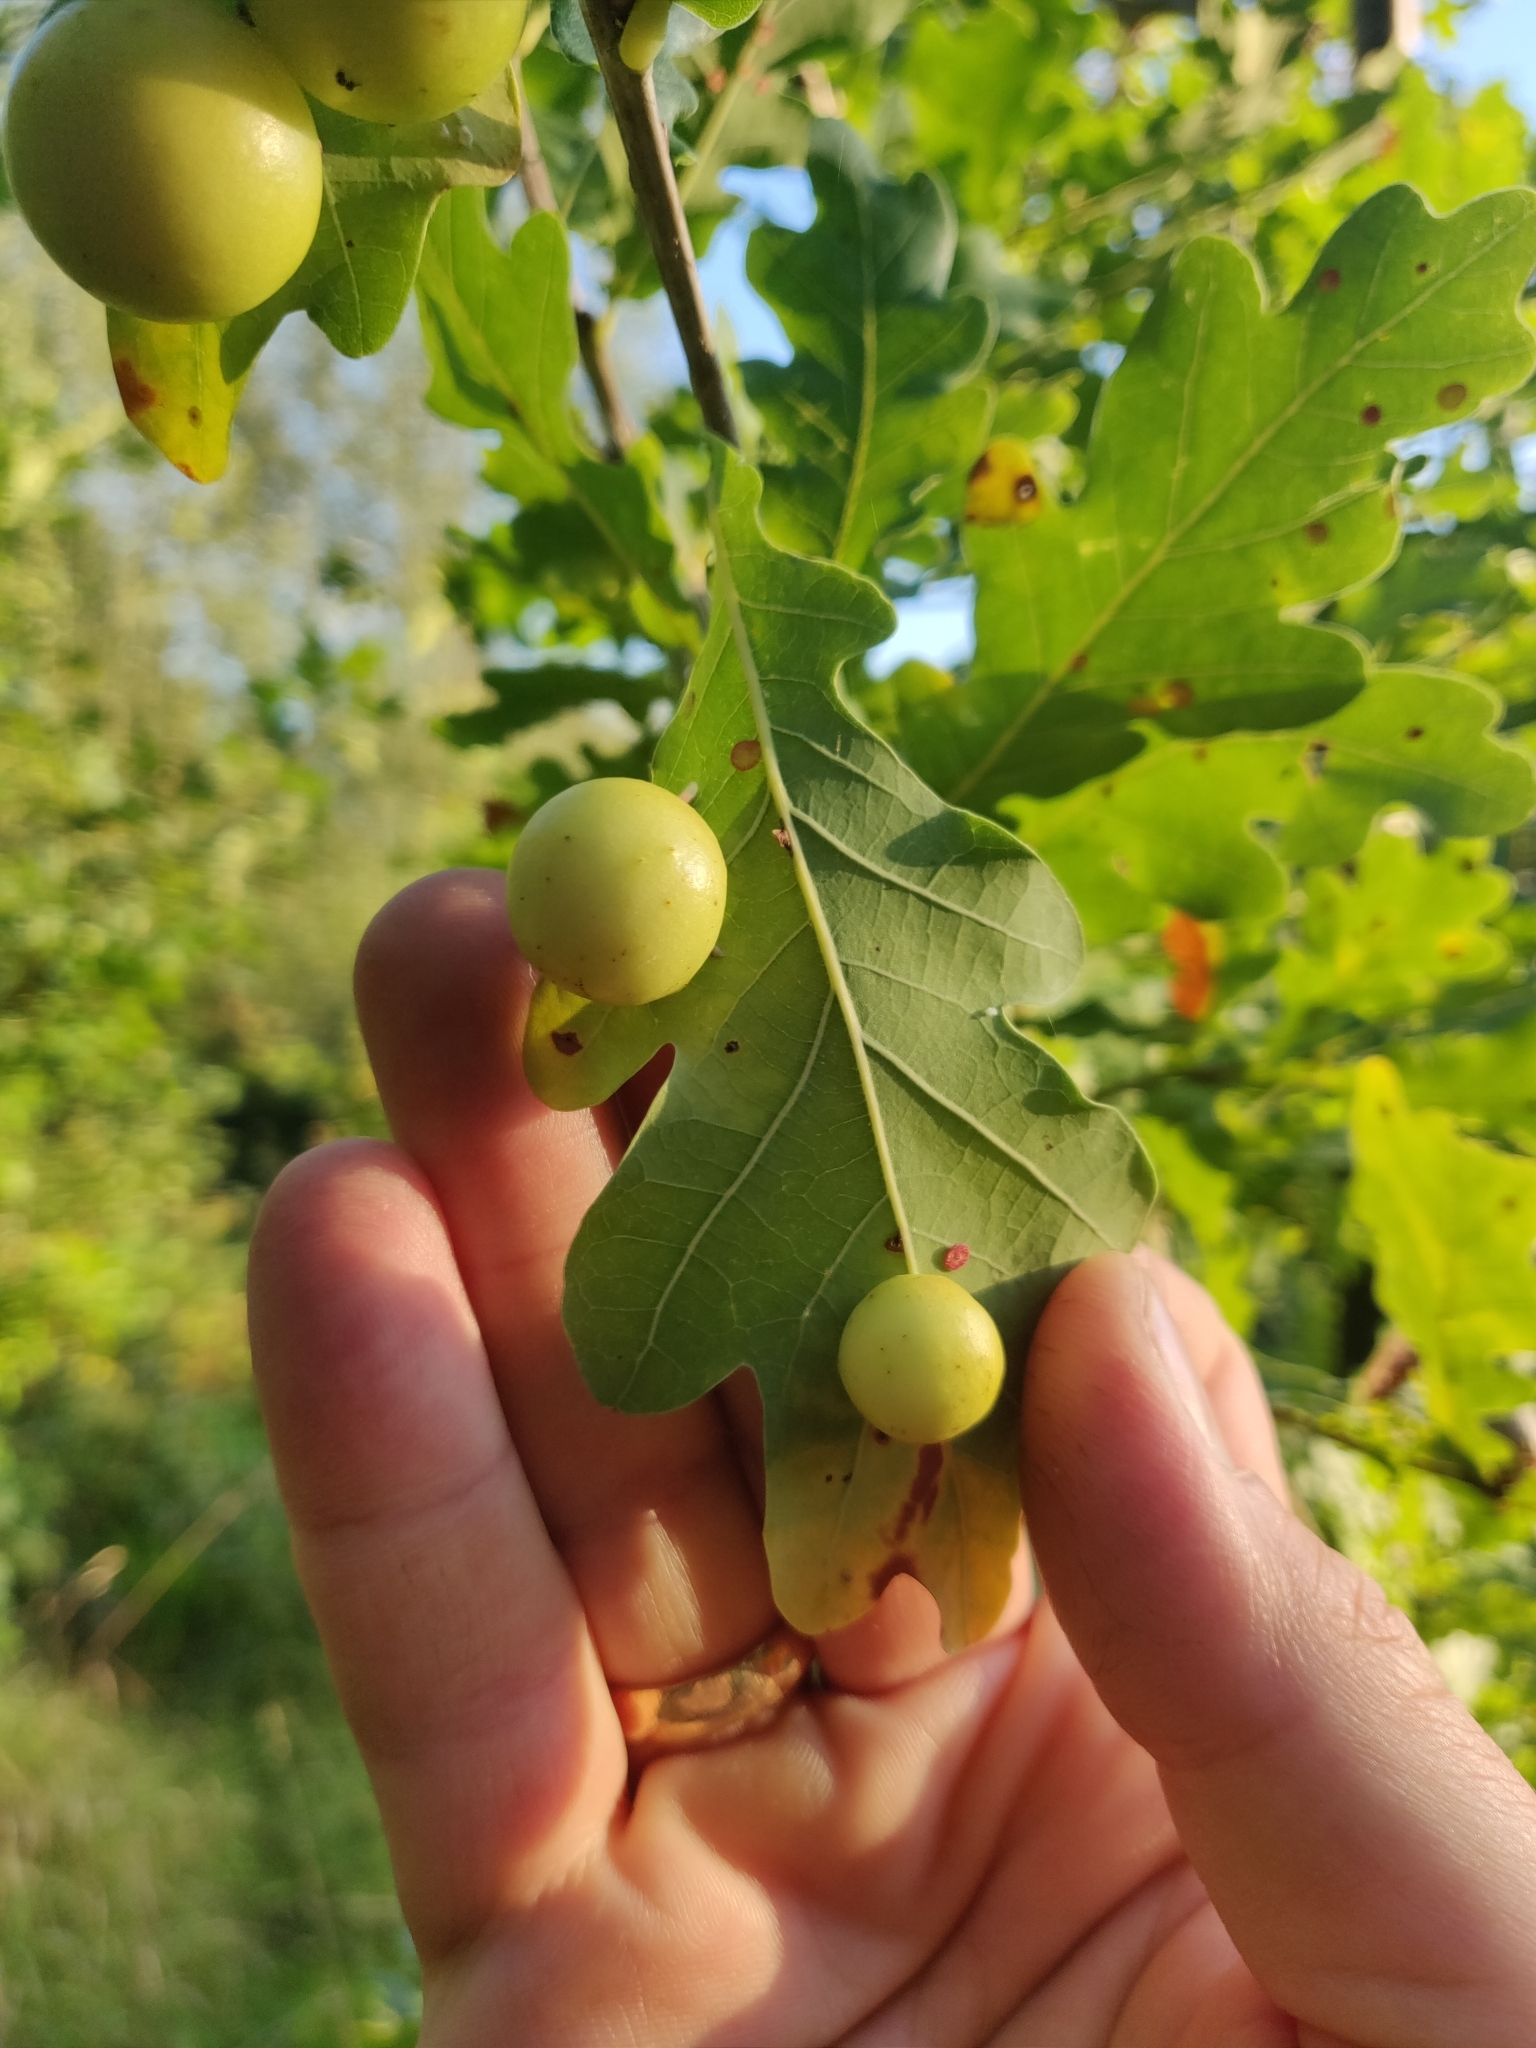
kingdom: Animalia
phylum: Arthropoda
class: Insecta
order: Hymenoptera
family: Cynipidae
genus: Cynips
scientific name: Cynips quercusfolii
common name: Cherry gall
